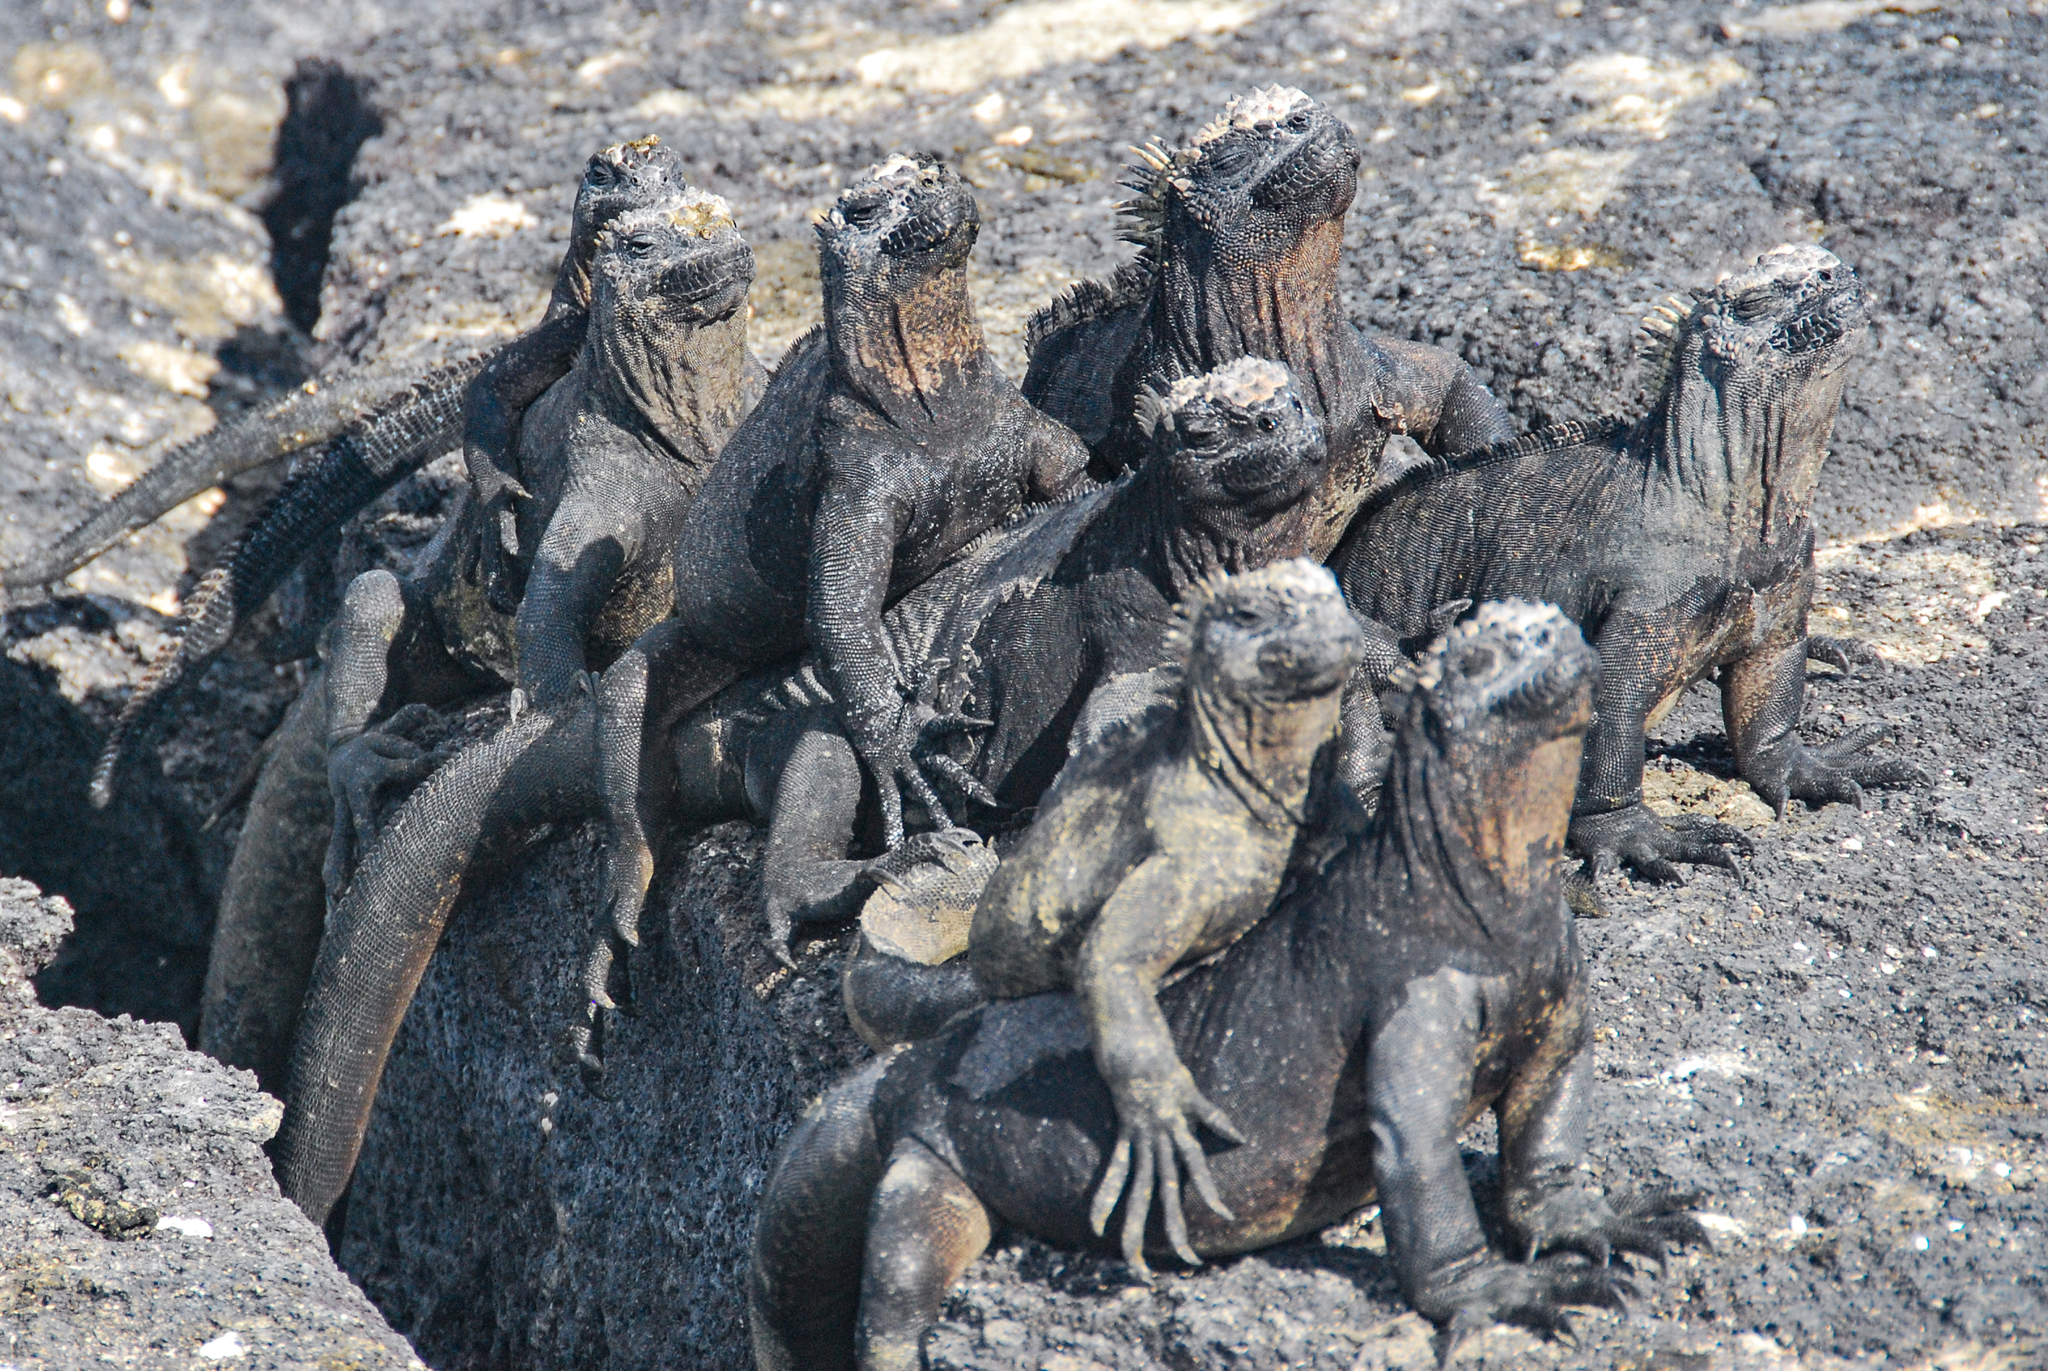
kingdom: Animalia
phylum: Chordata
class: Squamata
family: Iguanidae
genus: Amblyrhynchus
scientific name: Amblyrhynchus cristatus
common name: Marine iguana
